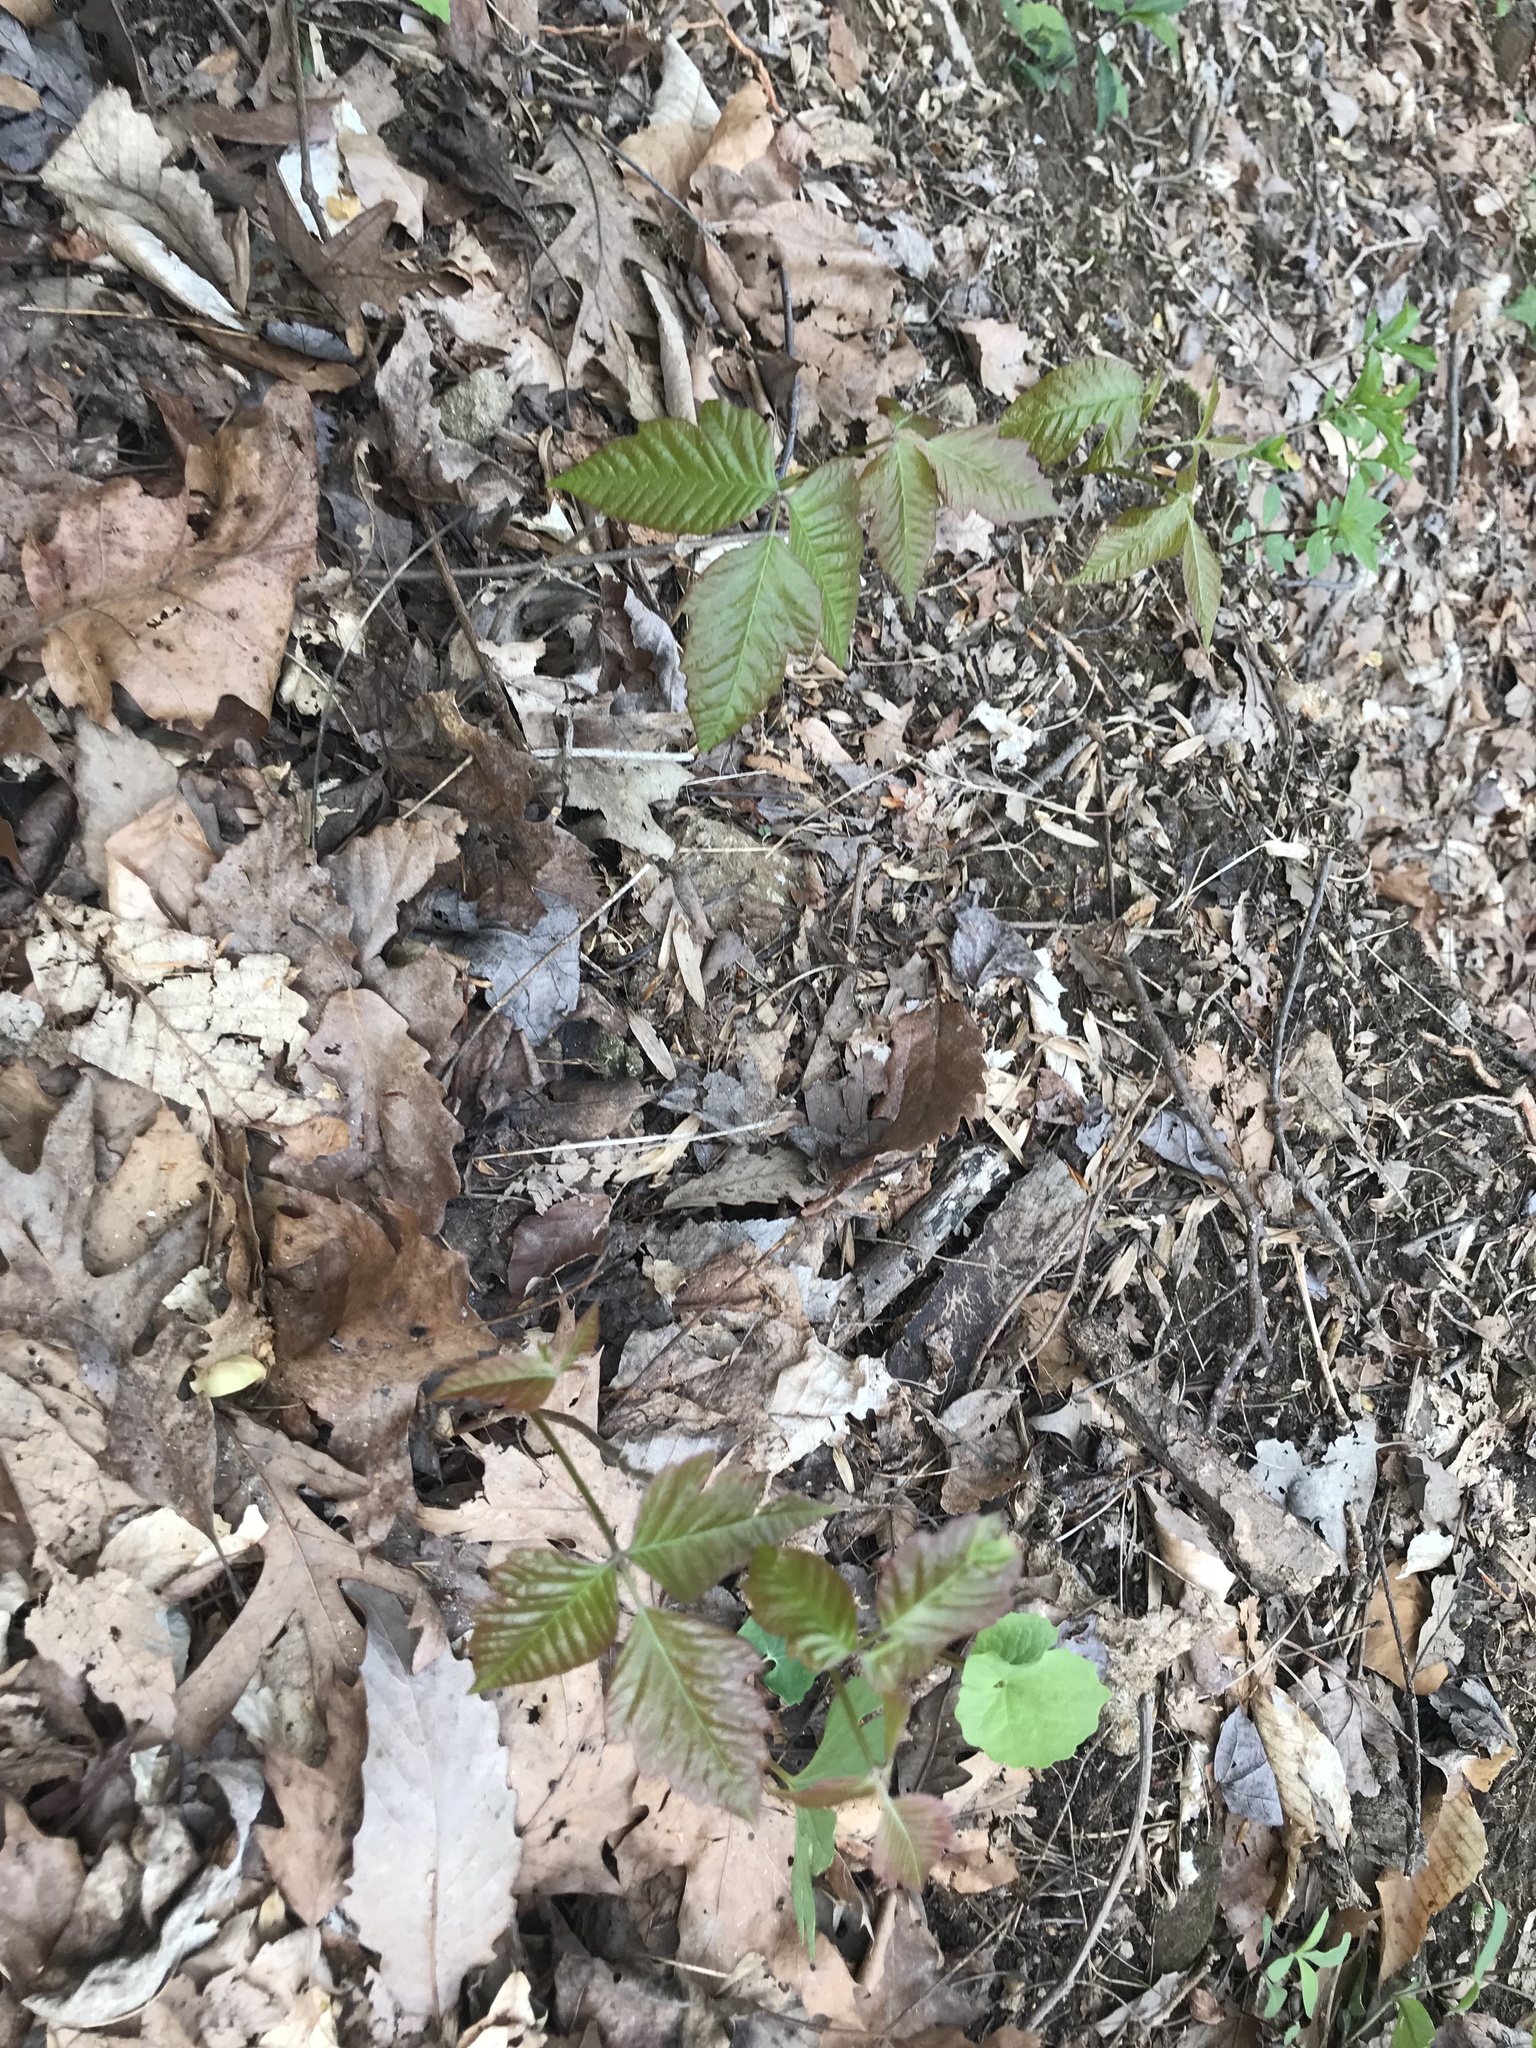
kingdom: Plantae
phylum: Tracheophyta
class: Magnoliopsida
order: Sapindales
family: Anacardiaceae
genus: Toxicodendron
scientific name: Toxicodendron radicans
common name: Poison ivy
